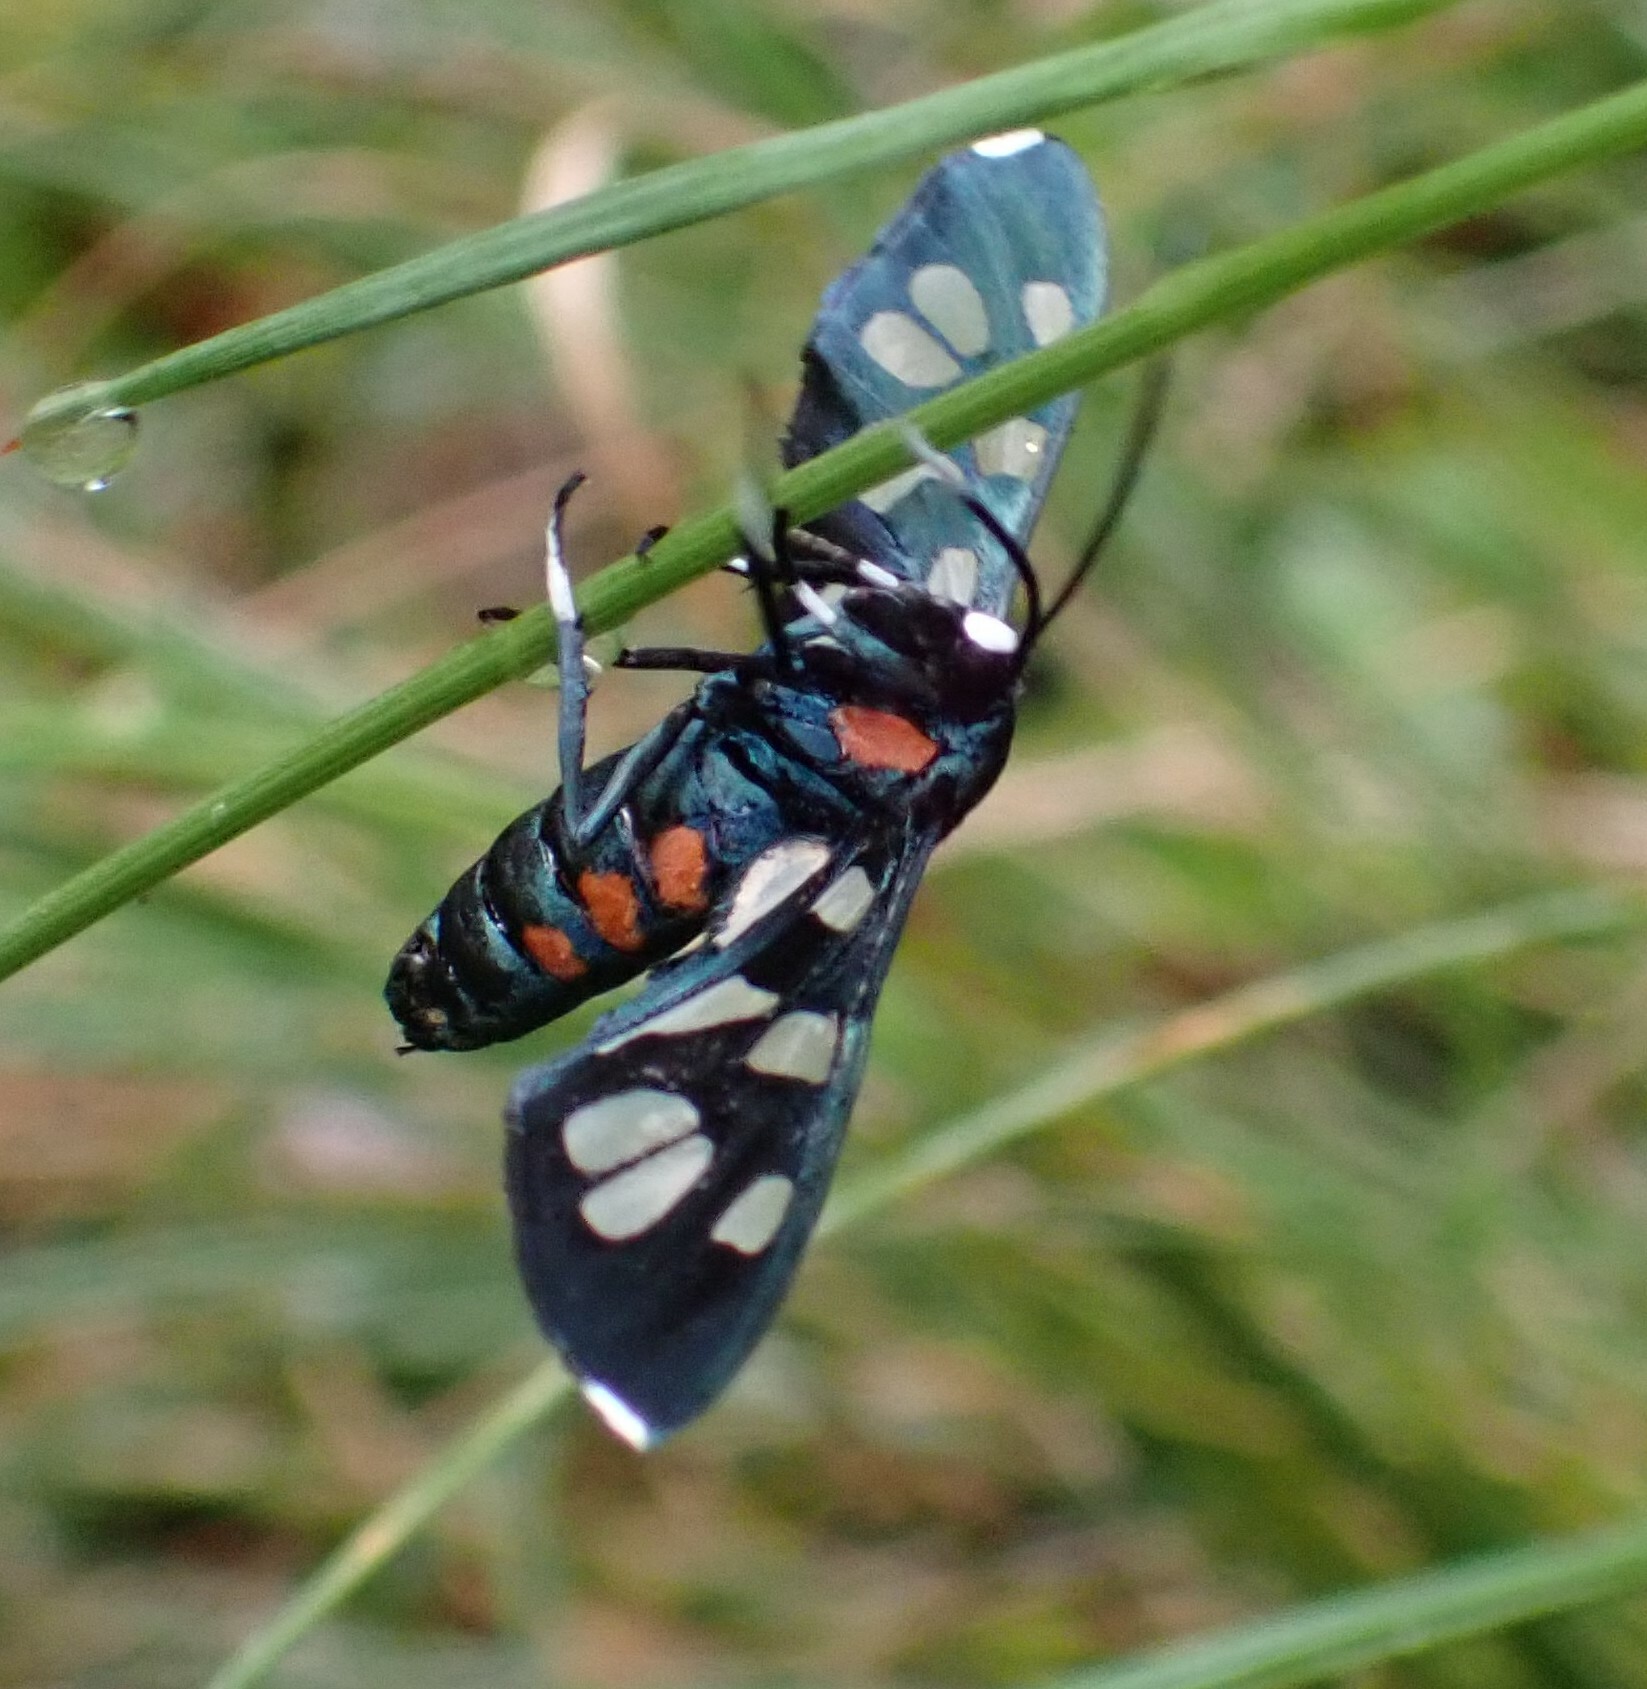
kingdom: Animalia
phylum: Arthropoda
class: Insecta
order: Lepidoptera
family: Erebidae
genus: Amata
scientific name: Amata kuhlweini
